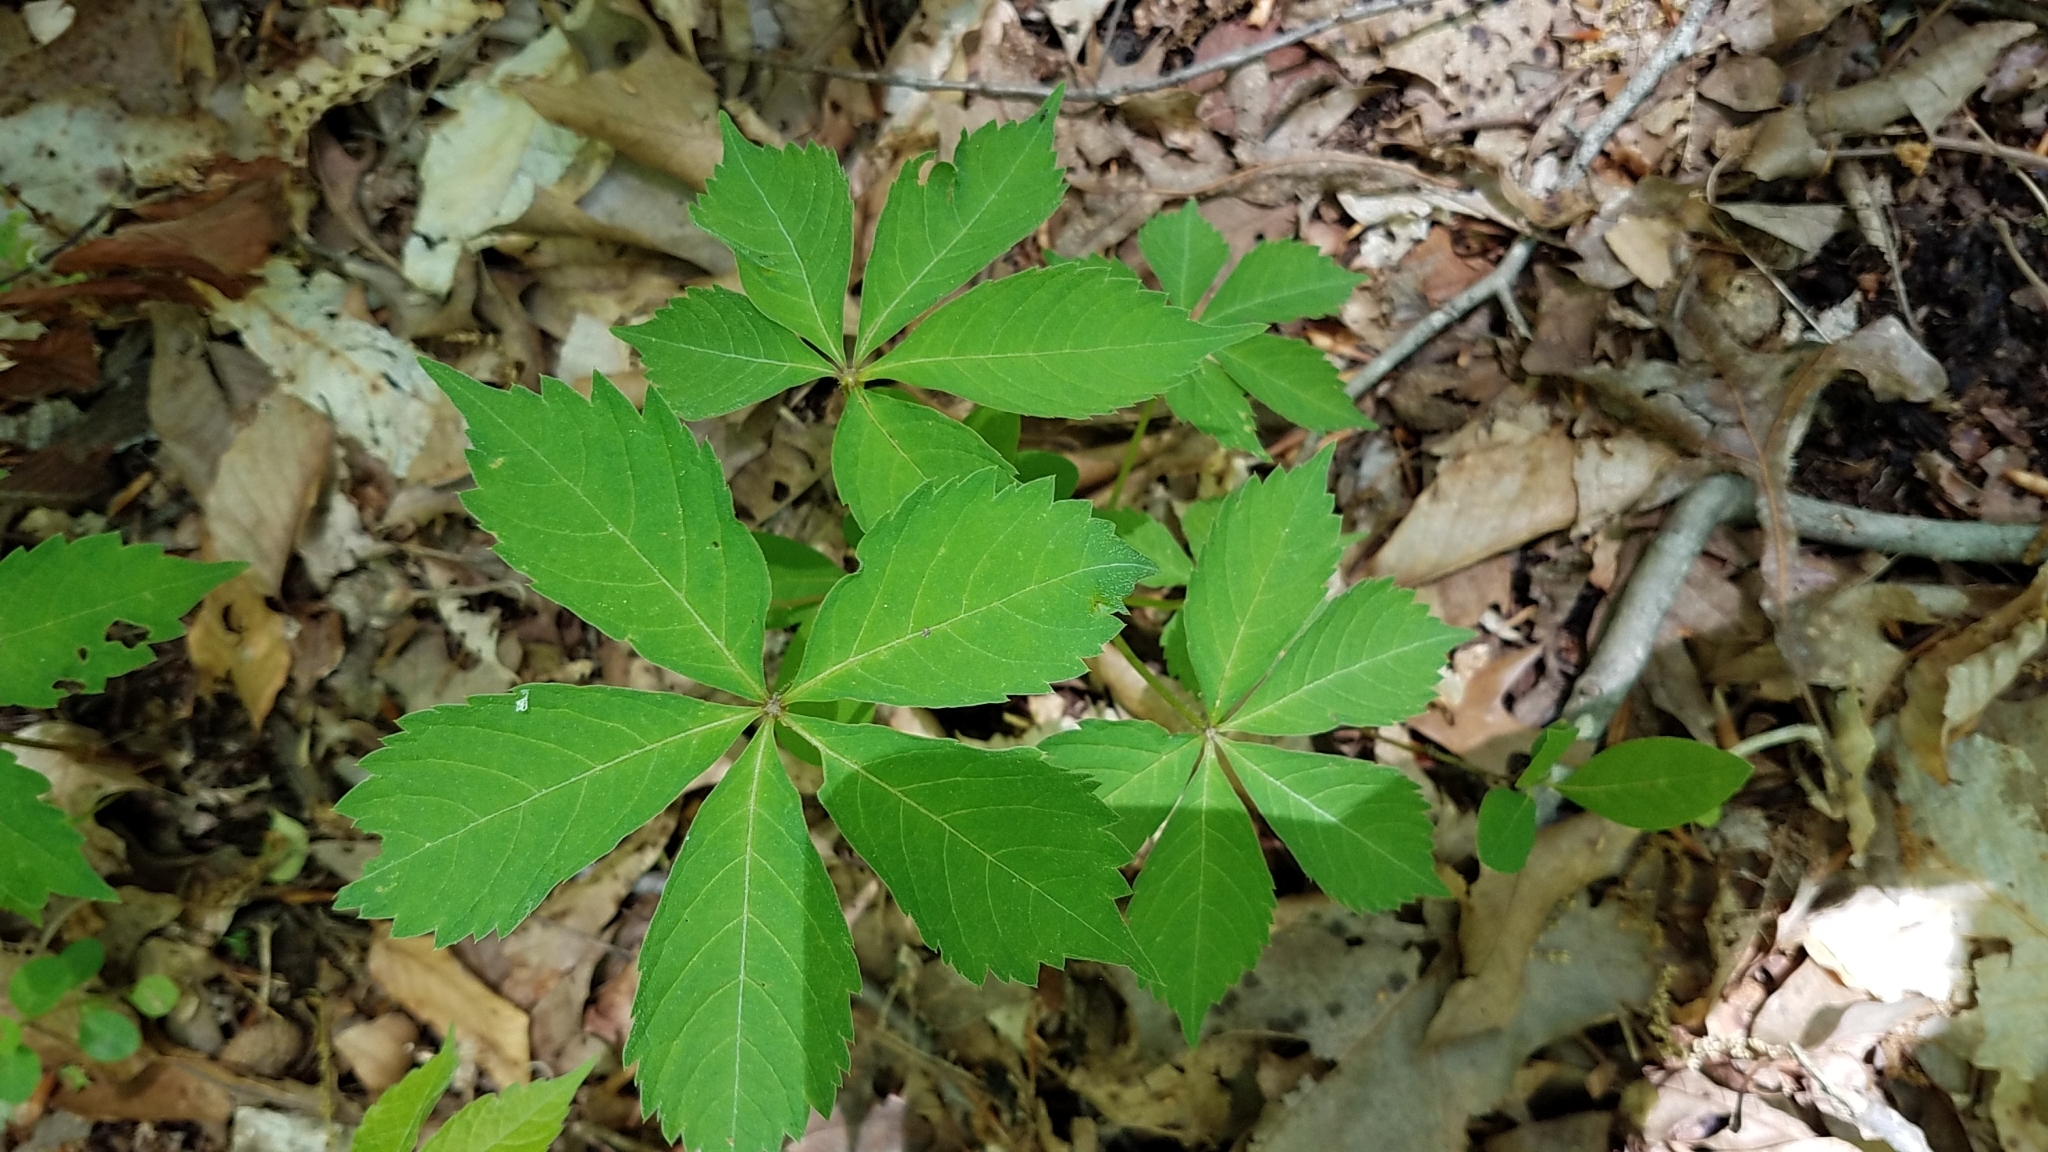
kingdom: Plantae
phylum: Tracheophyta
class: Magnoliopsida
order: Vitales
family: Vitaceae
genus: Parthenocissus
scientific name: Parthenocissus quinquefolia
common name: Virginia-creeper
